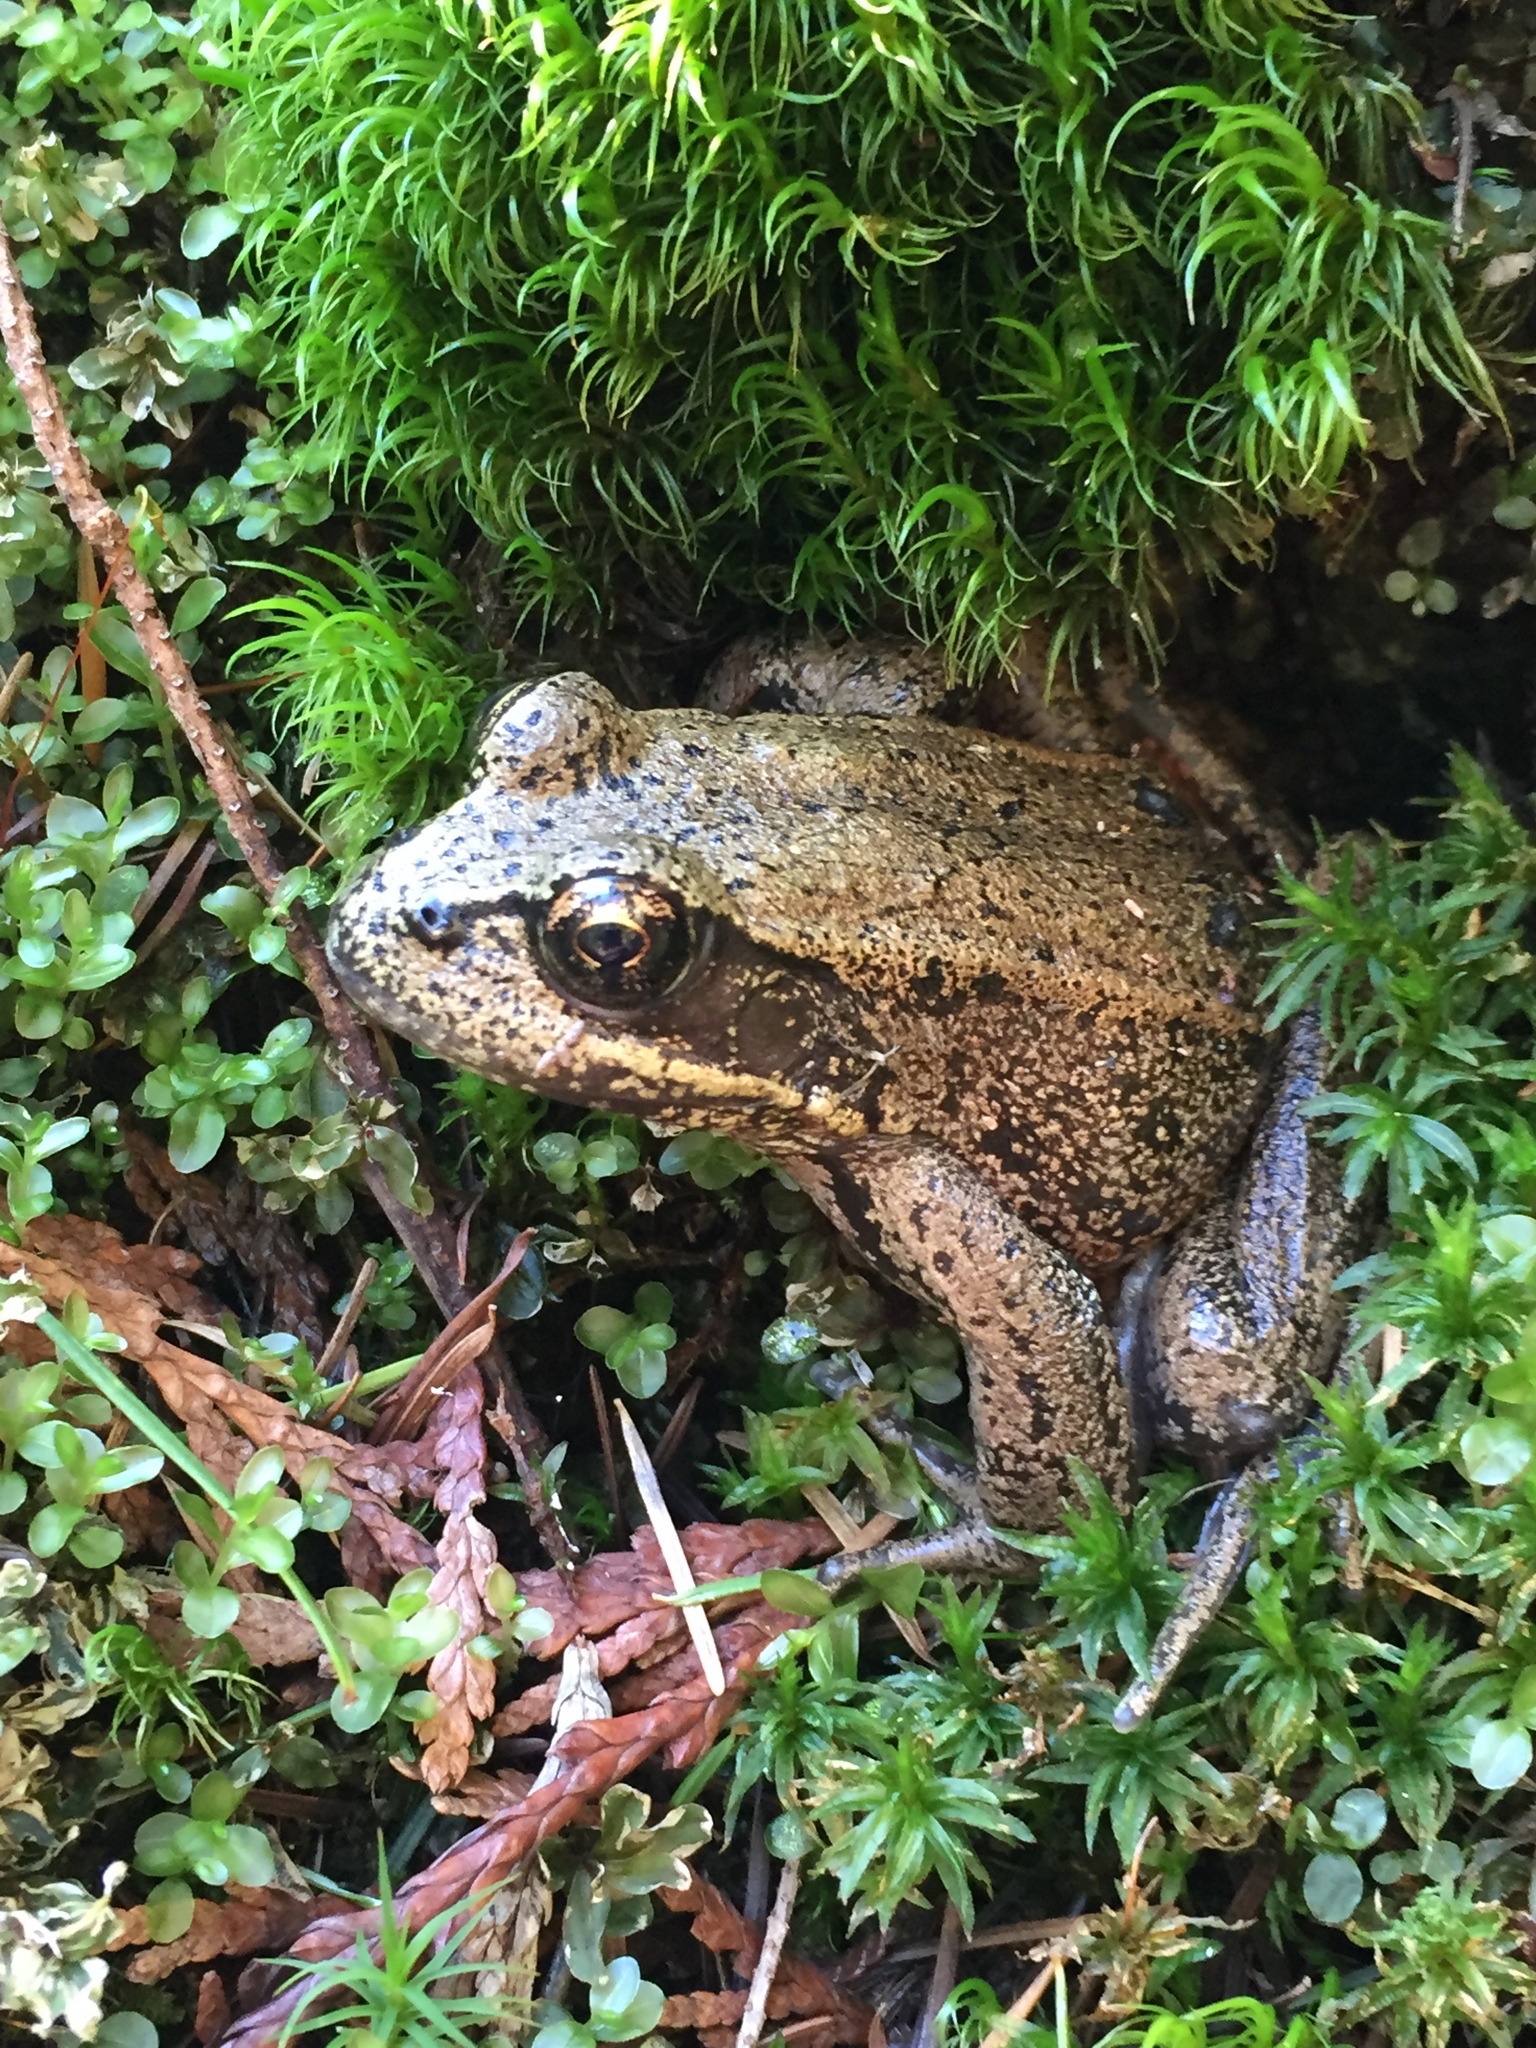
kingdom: Animalia
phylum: Chordata
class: Amphibia
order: Anura
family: Ranidae
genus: Rana
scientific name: Rana aurora
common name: Red-legged frog
